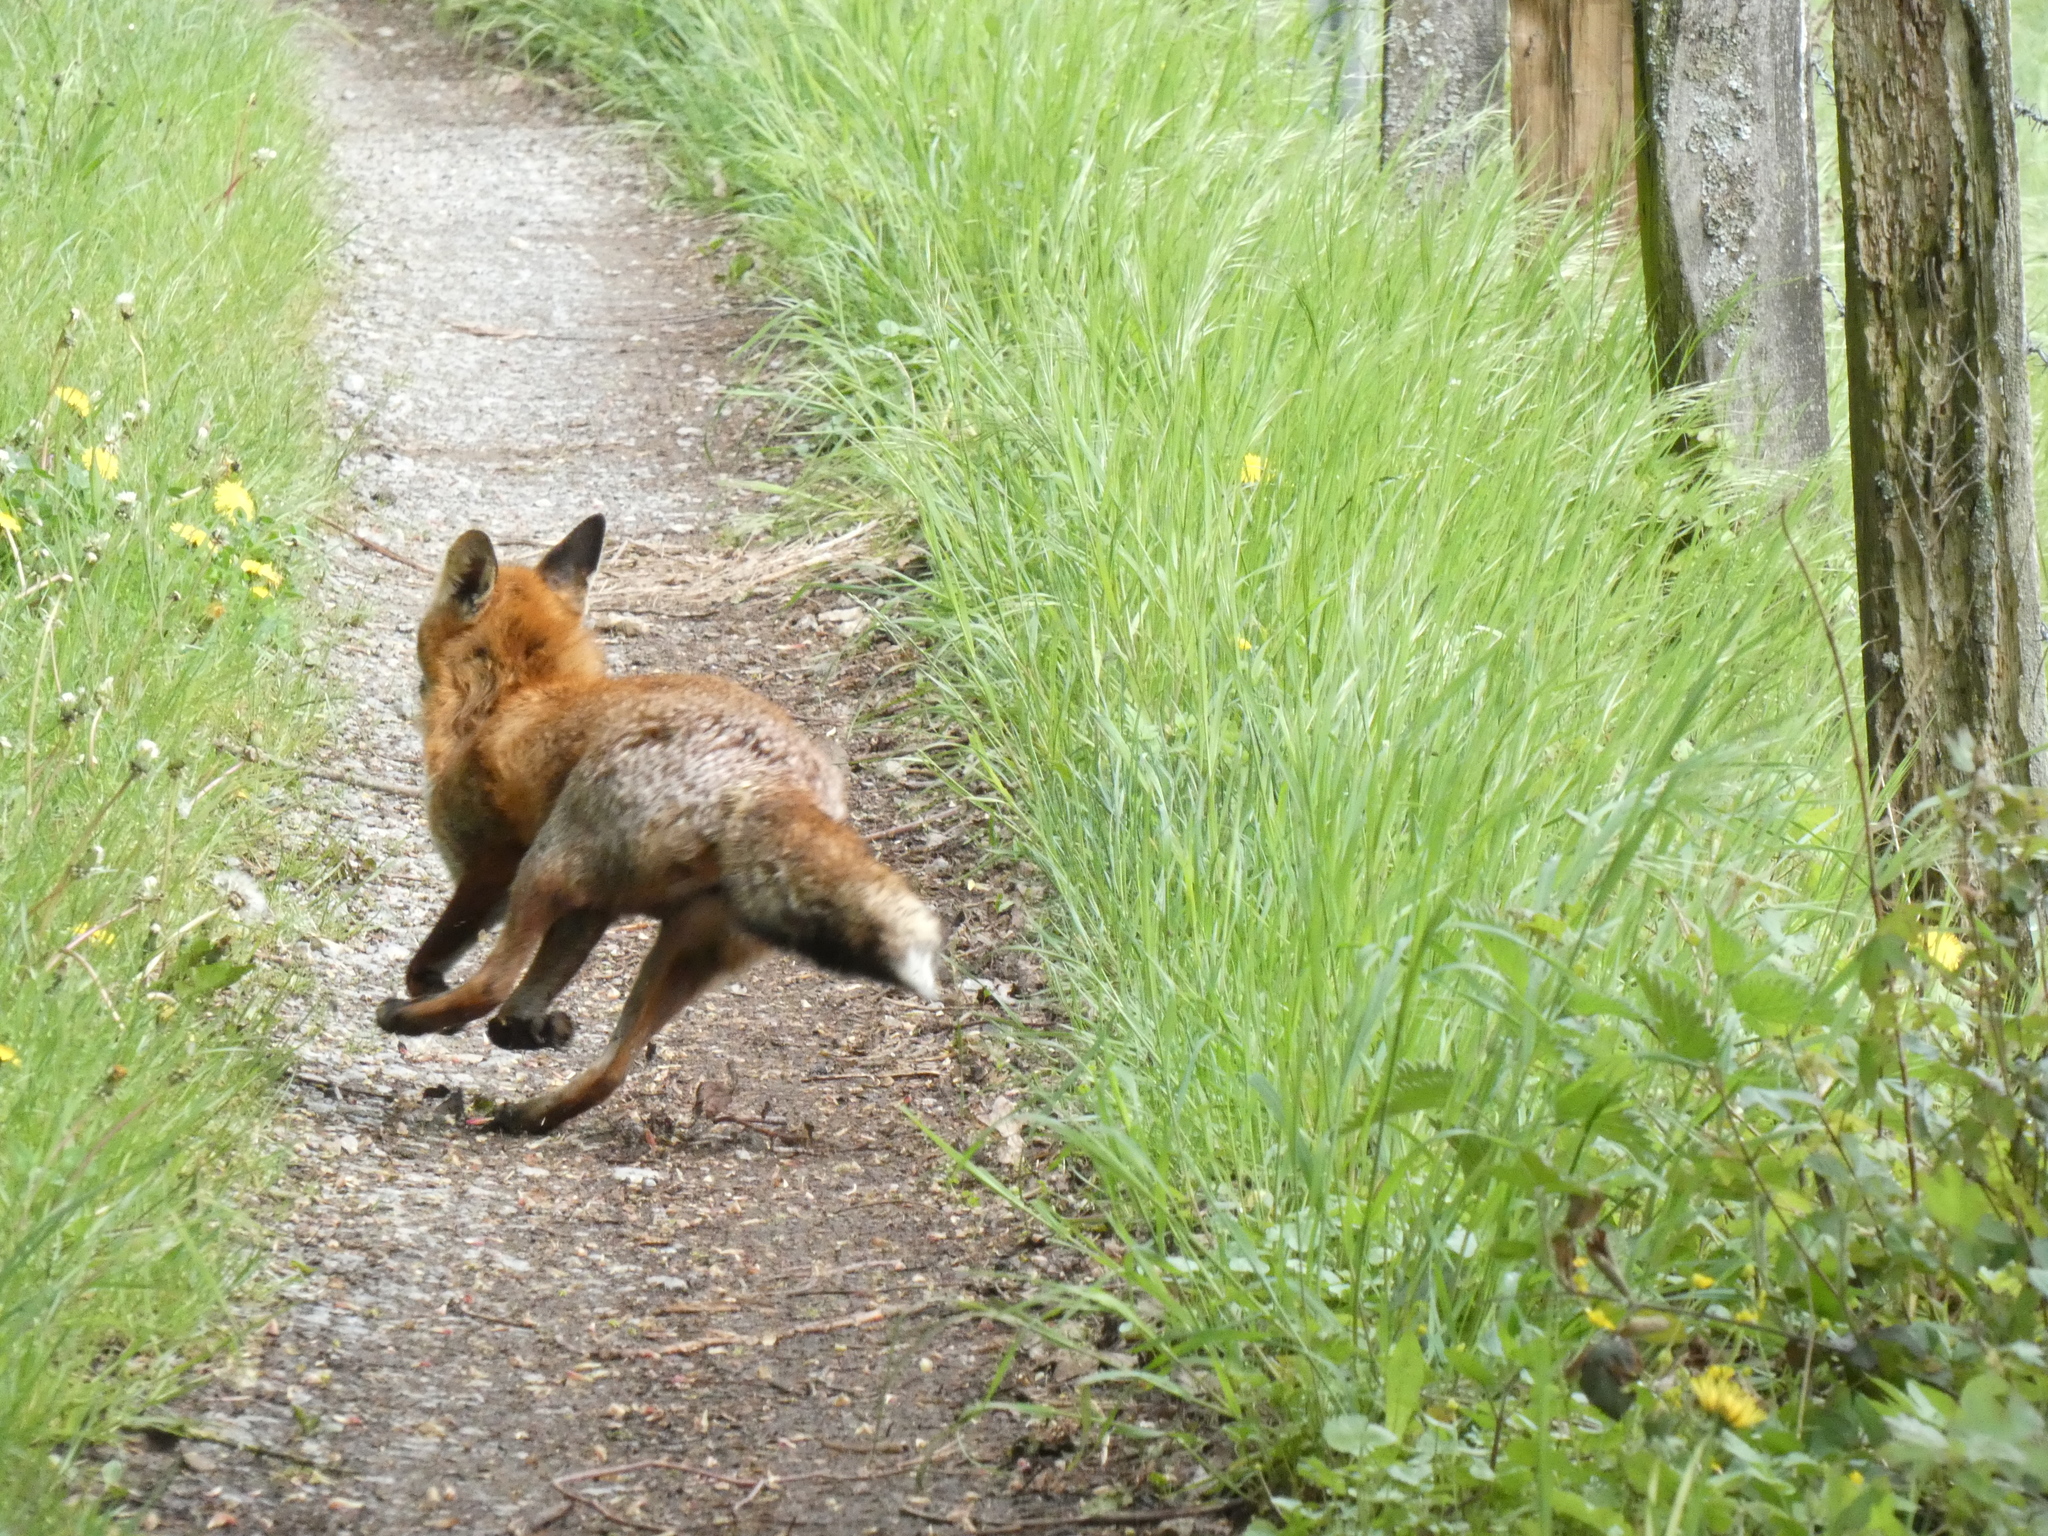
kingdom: Animalia
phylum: Chordata
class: Mammalia
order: Carnivora
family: Canidae
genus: Vulpes
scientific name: Vulpes vulpes
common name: Red fox
